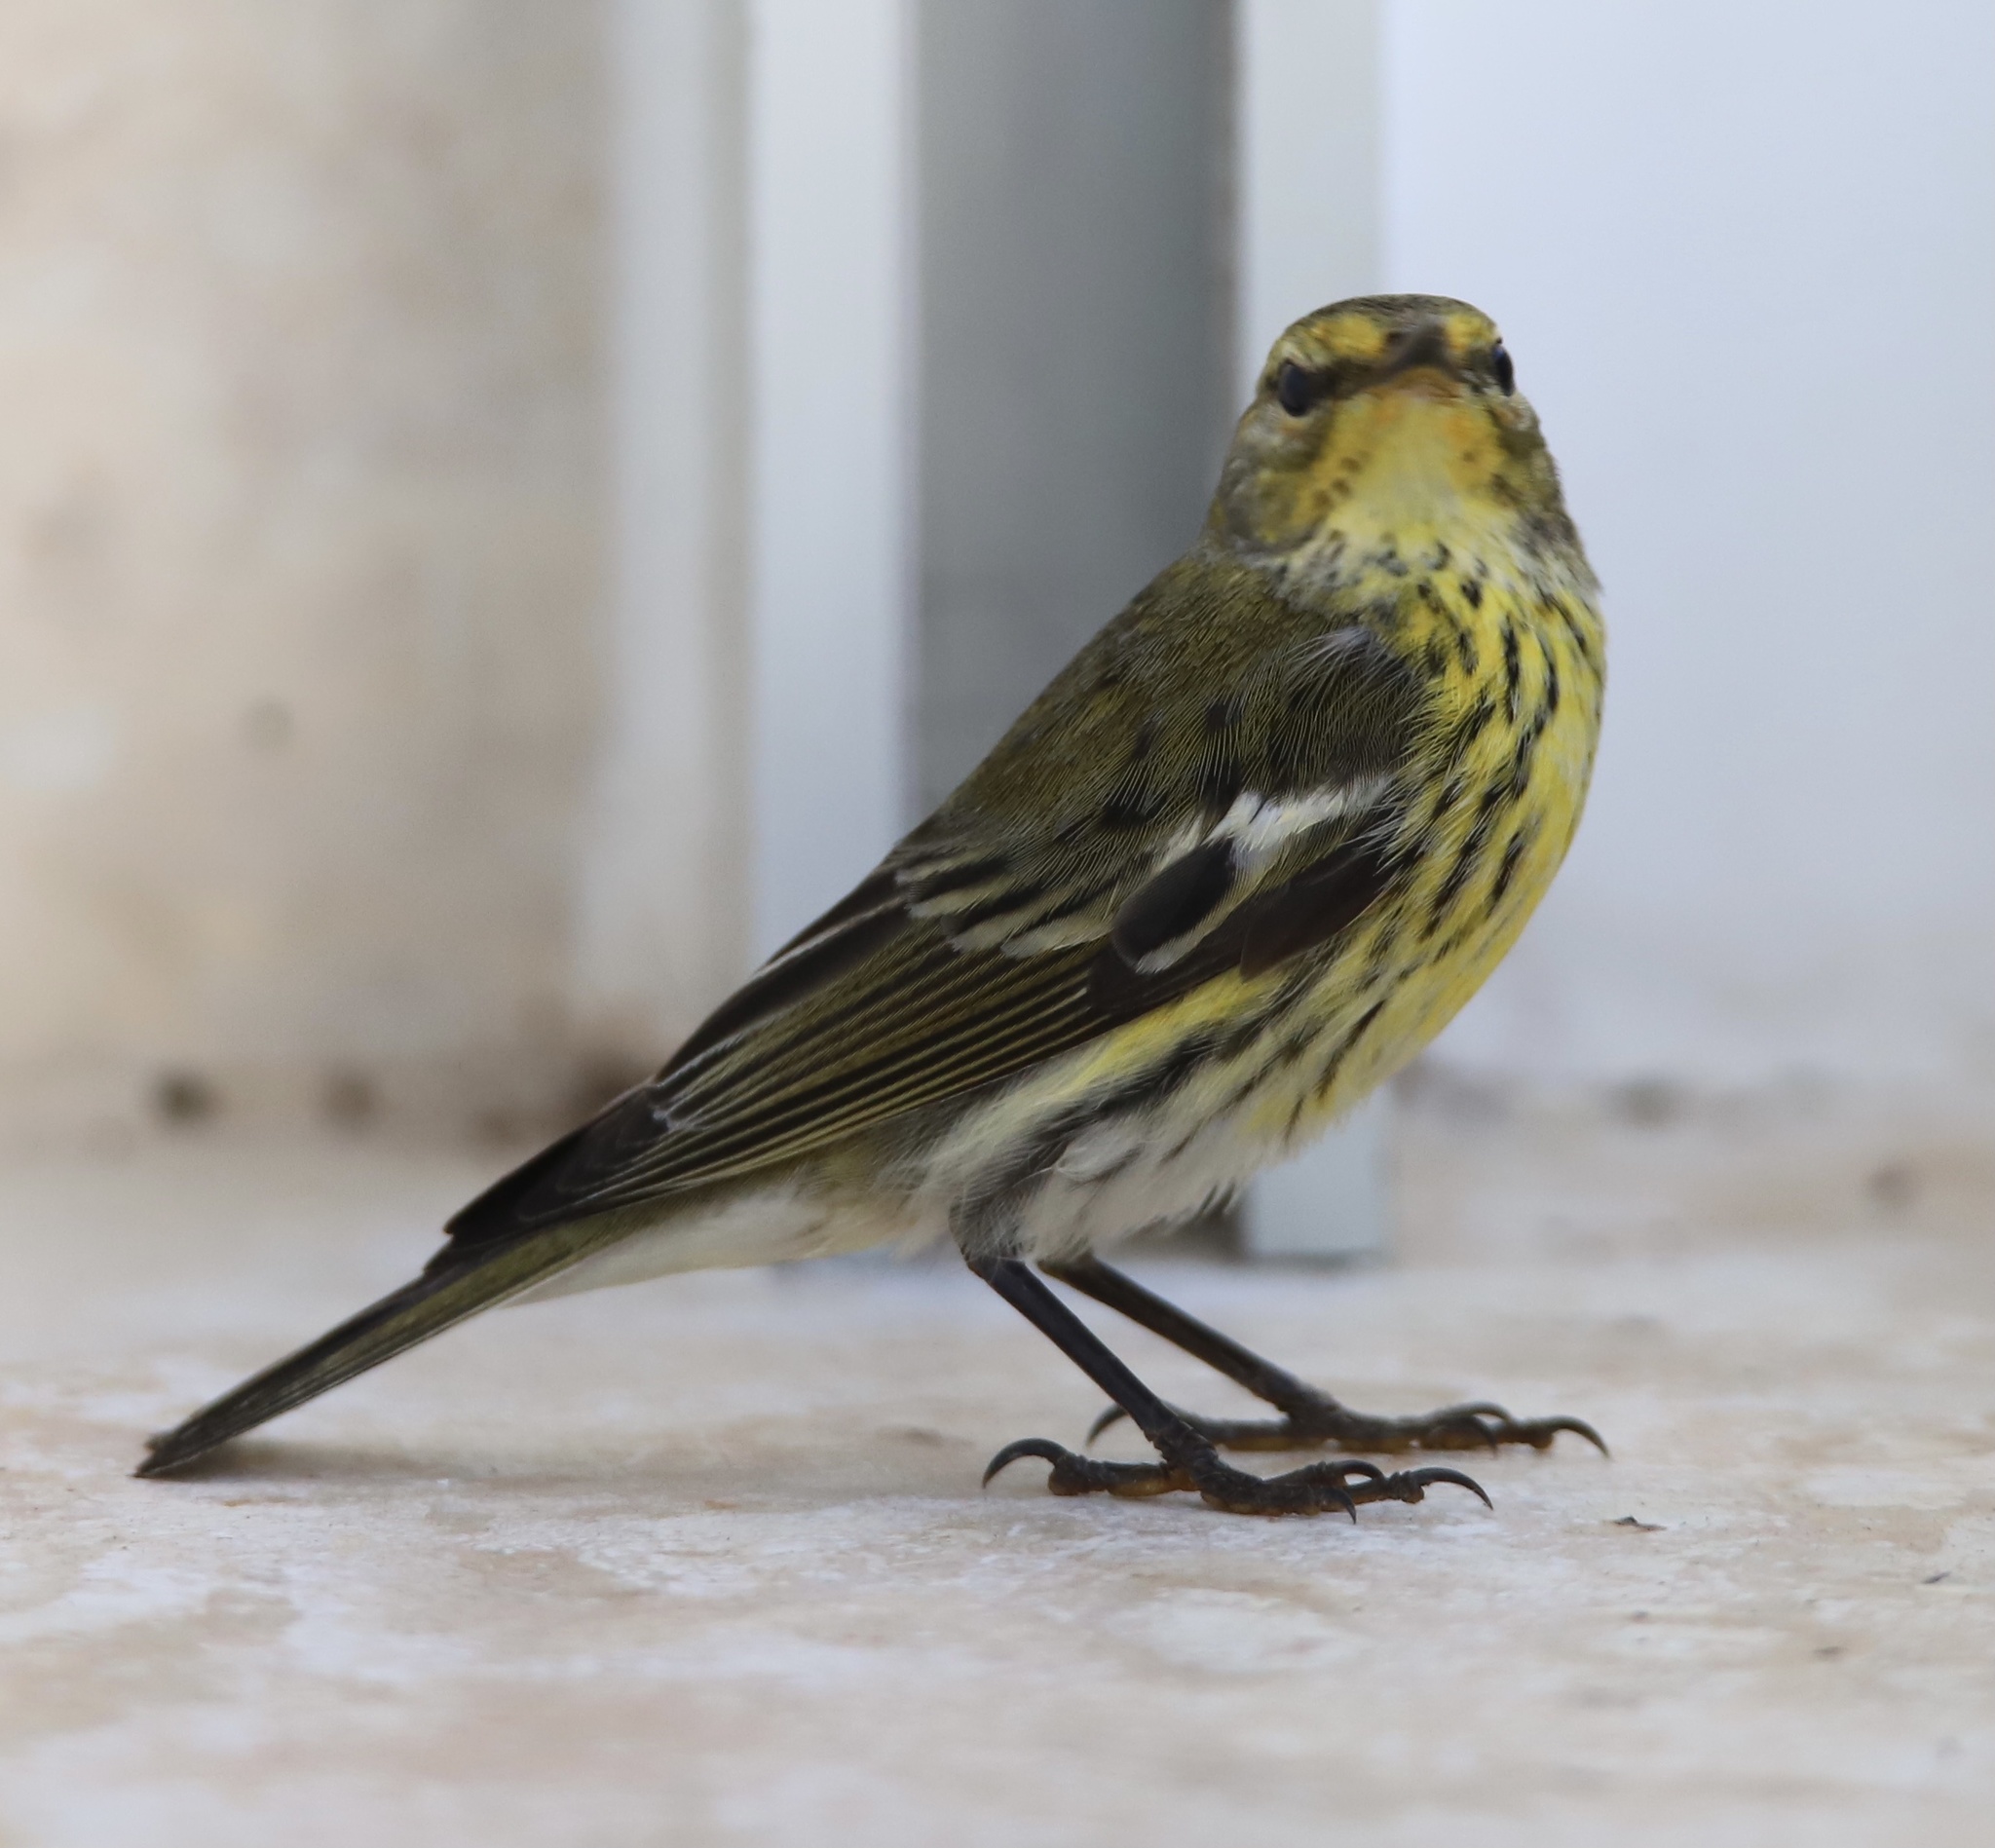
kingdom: Animalia
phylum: Chordata
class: Aves
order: Passeriformes
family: Parulidae
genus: Setophaga
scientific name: Setophaga tigrina
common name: Cape may warbler
